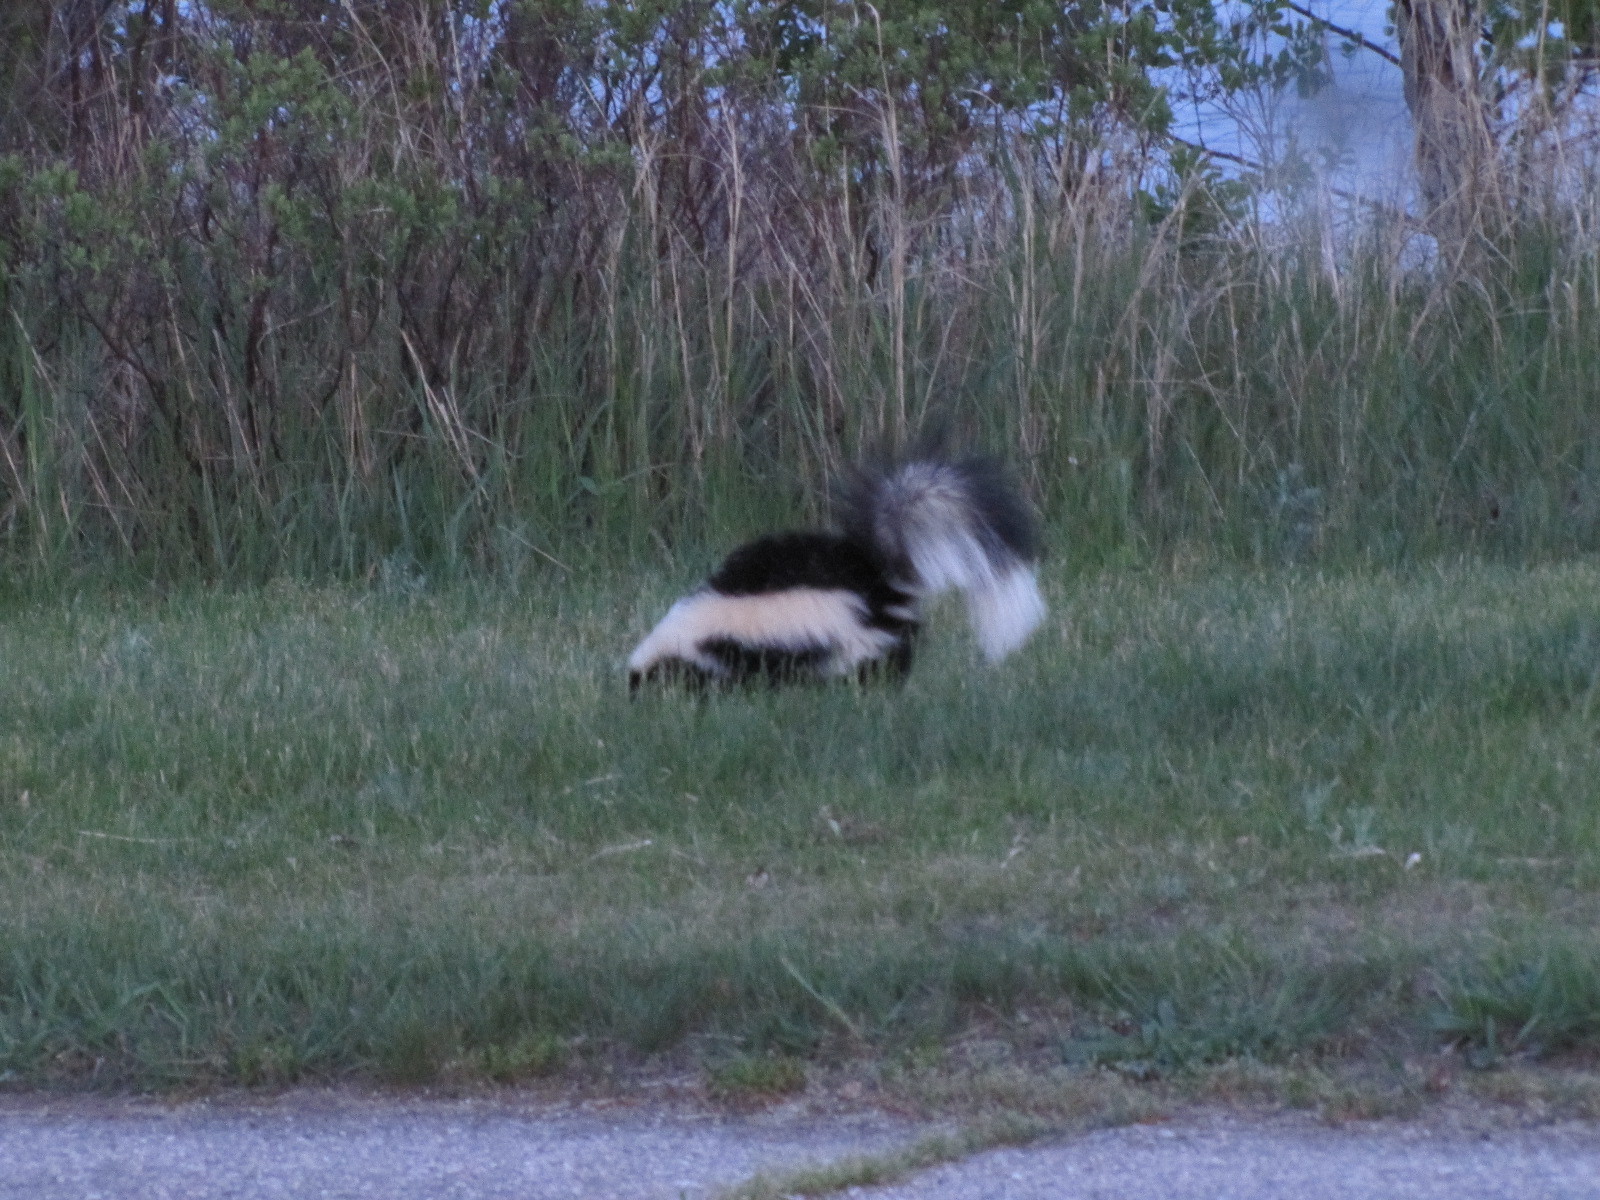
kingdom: Animalia
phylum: Chordata
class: Mammalia
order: Carnivora
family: Mephitidae
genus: Mephitis
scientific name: Mephitis mephitis
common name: Striped skunk
